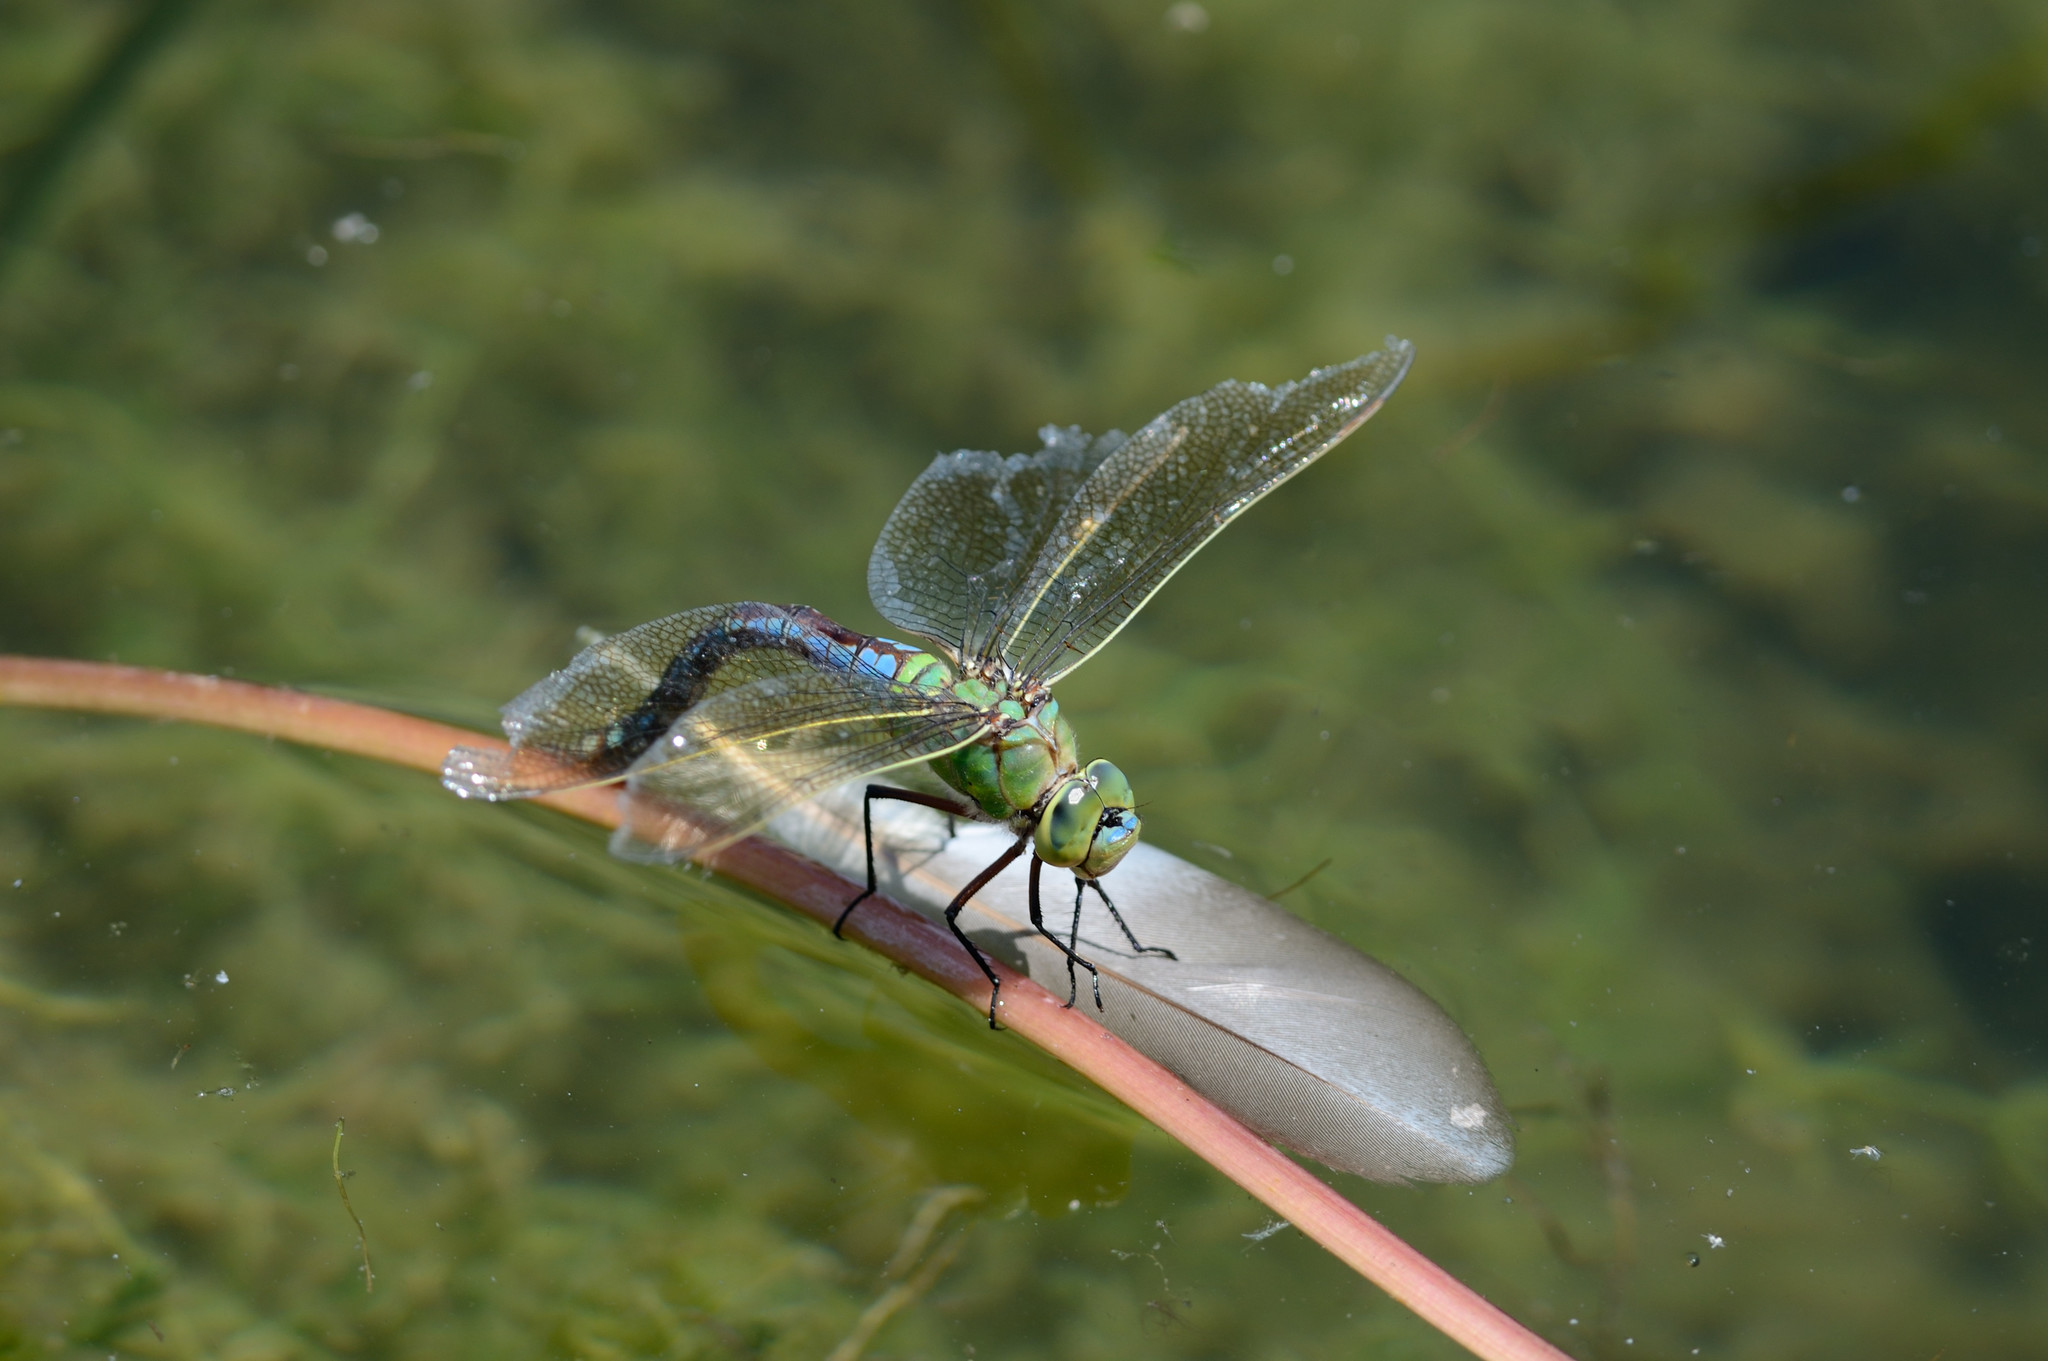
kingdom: Animalia
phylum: Arthropoda
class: Insecta
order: Odonata
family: Aeshnidae
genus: Anax
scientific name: Anax imperator
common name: Emperor dragonfly
